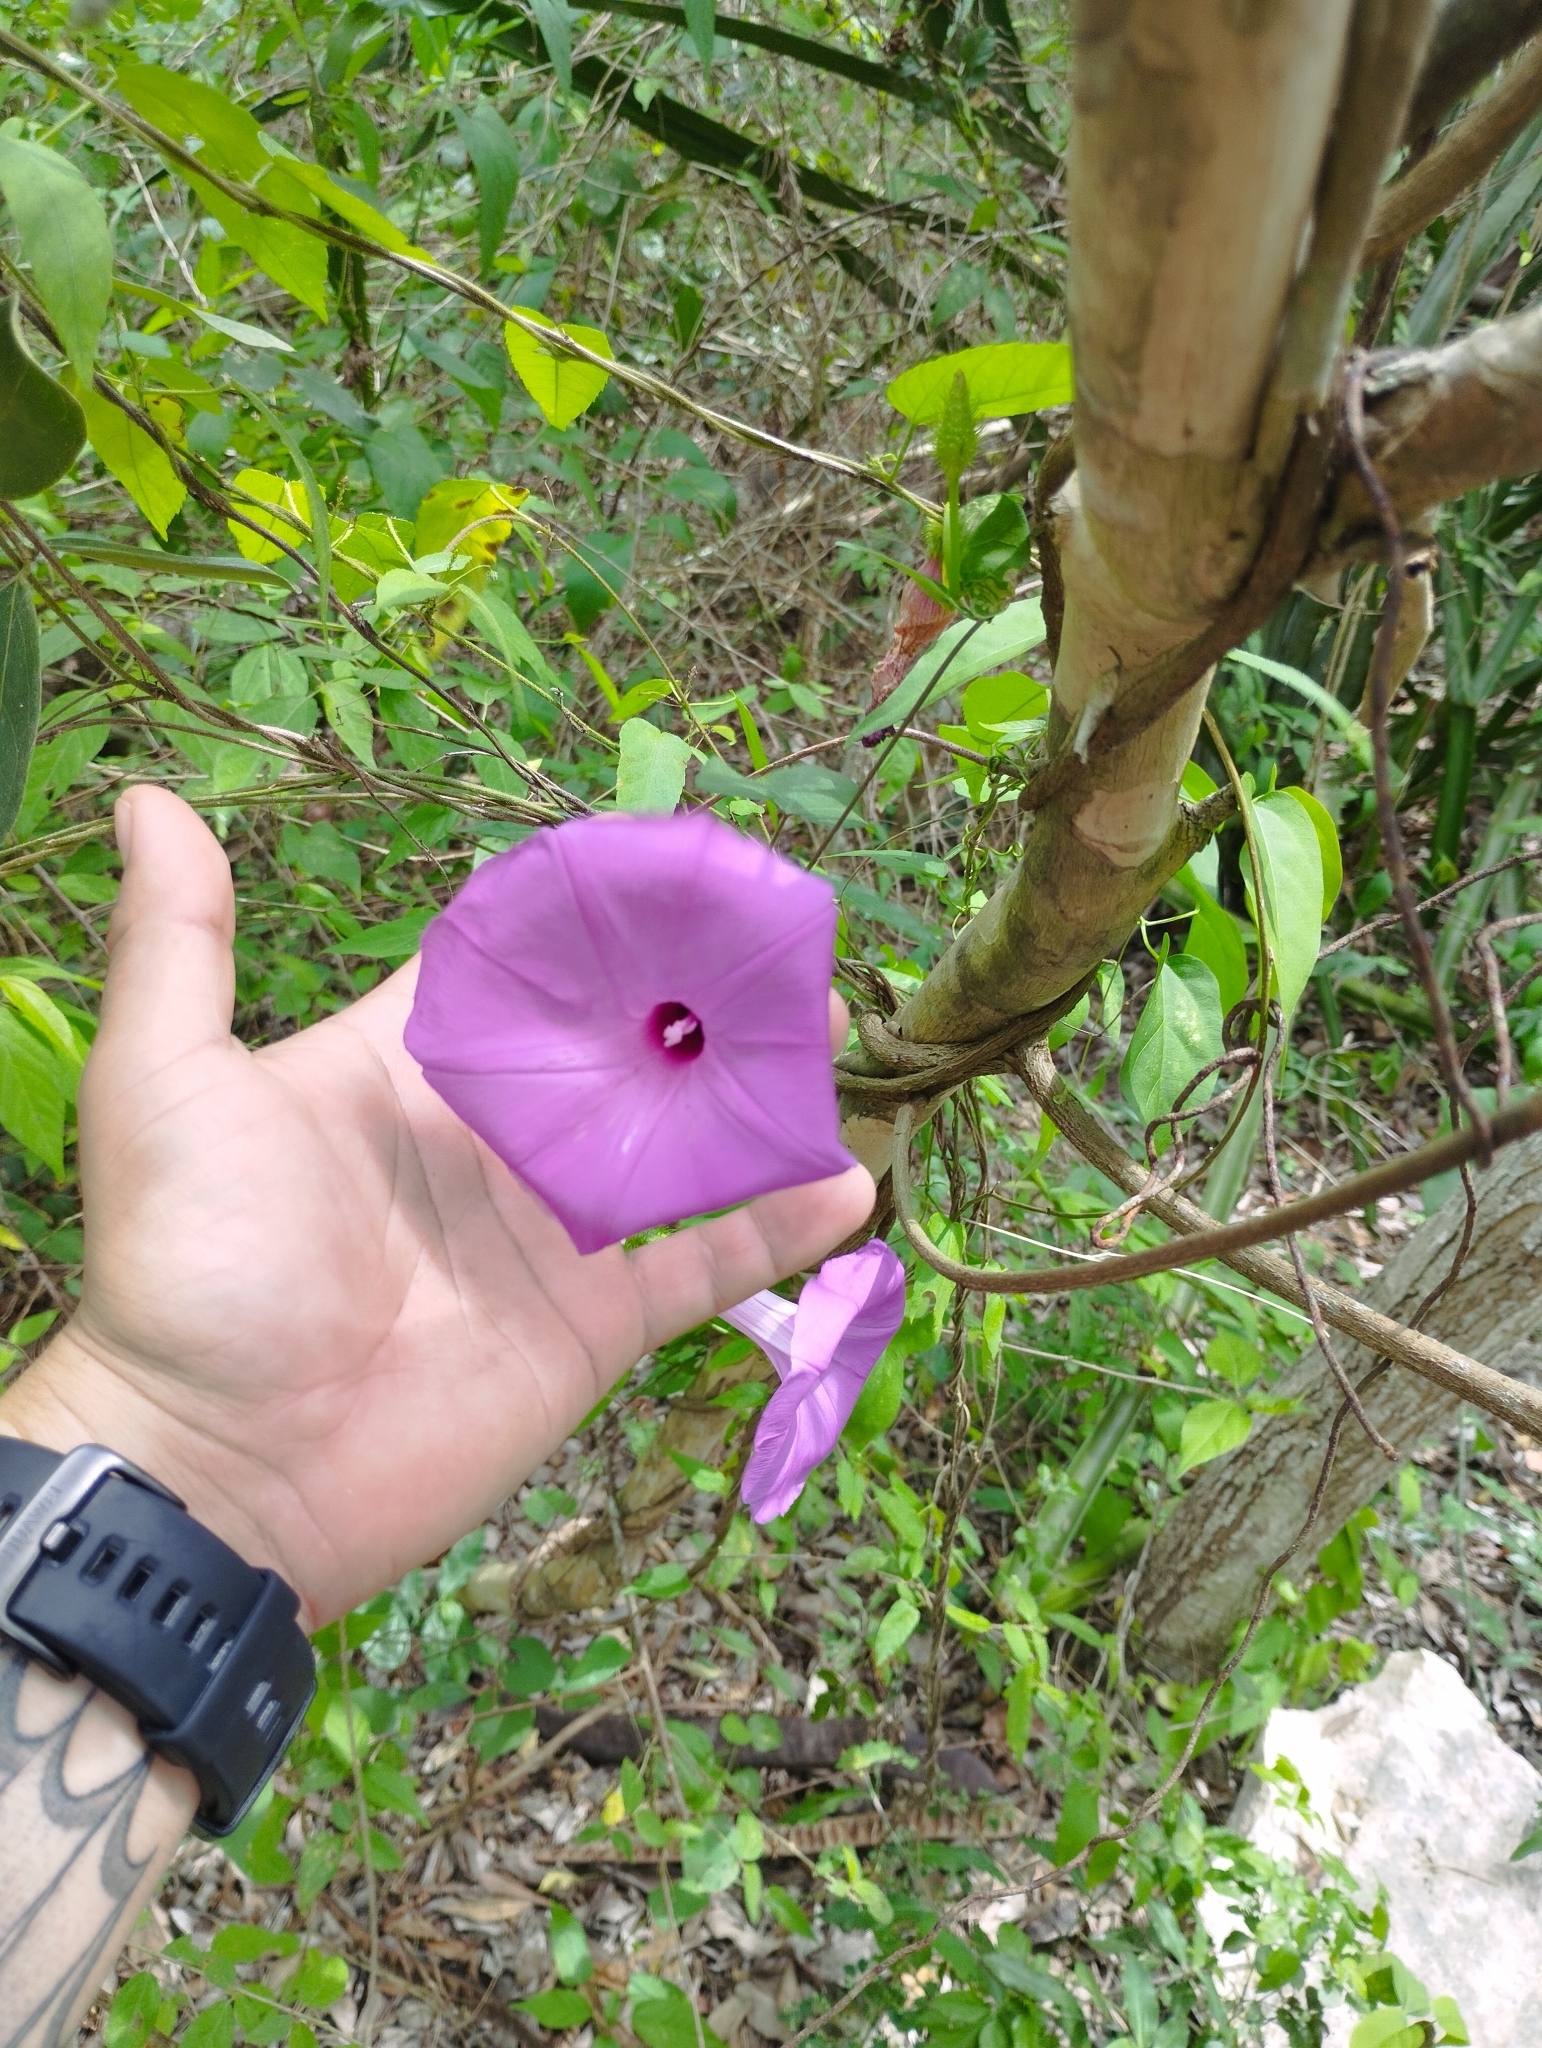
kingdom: Plantae
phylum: Tracheophyta
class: Magnoliopsida
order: Solanales
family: Convolvulaceae
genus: Ipomoea
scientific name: Ipomoea crinicalyx
